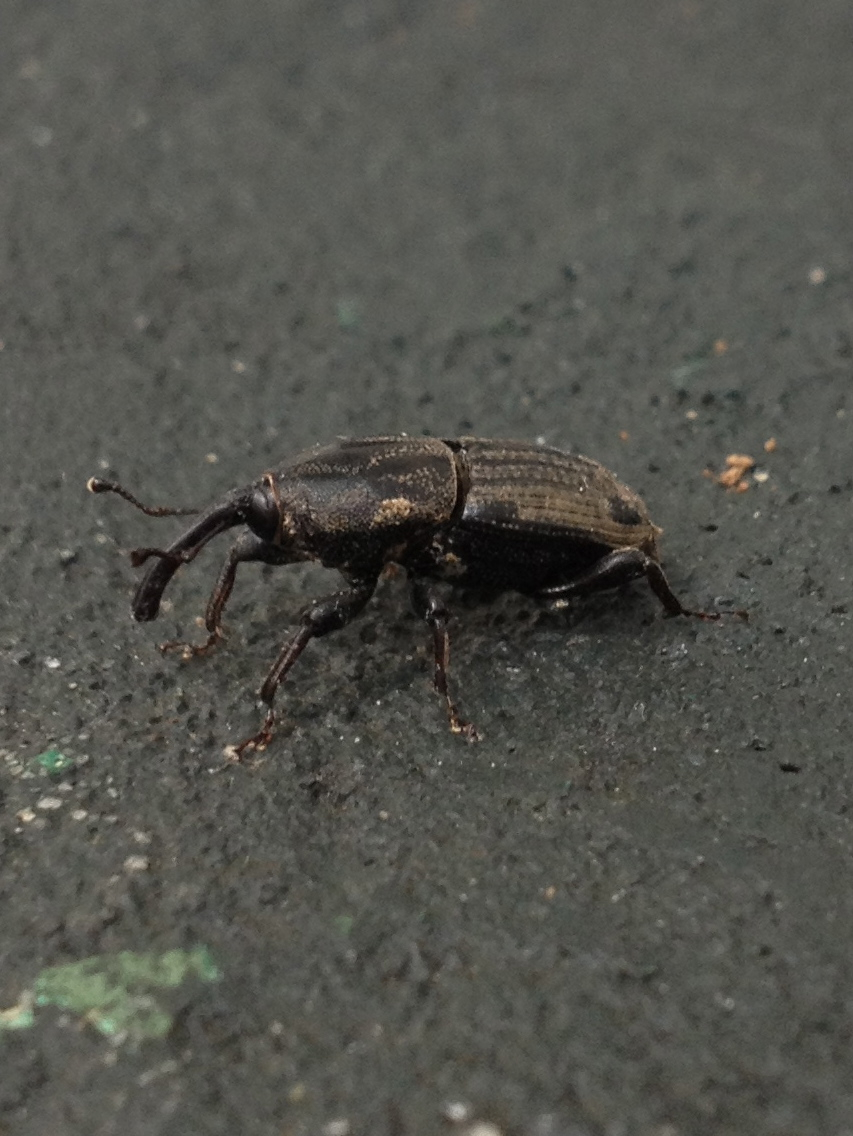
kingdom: Animalia
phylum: Arthropoda
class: Insecta
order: Coleoptera
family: Dryophthoridae
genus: Sphenophorus
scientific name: Sphenophorus maidis
